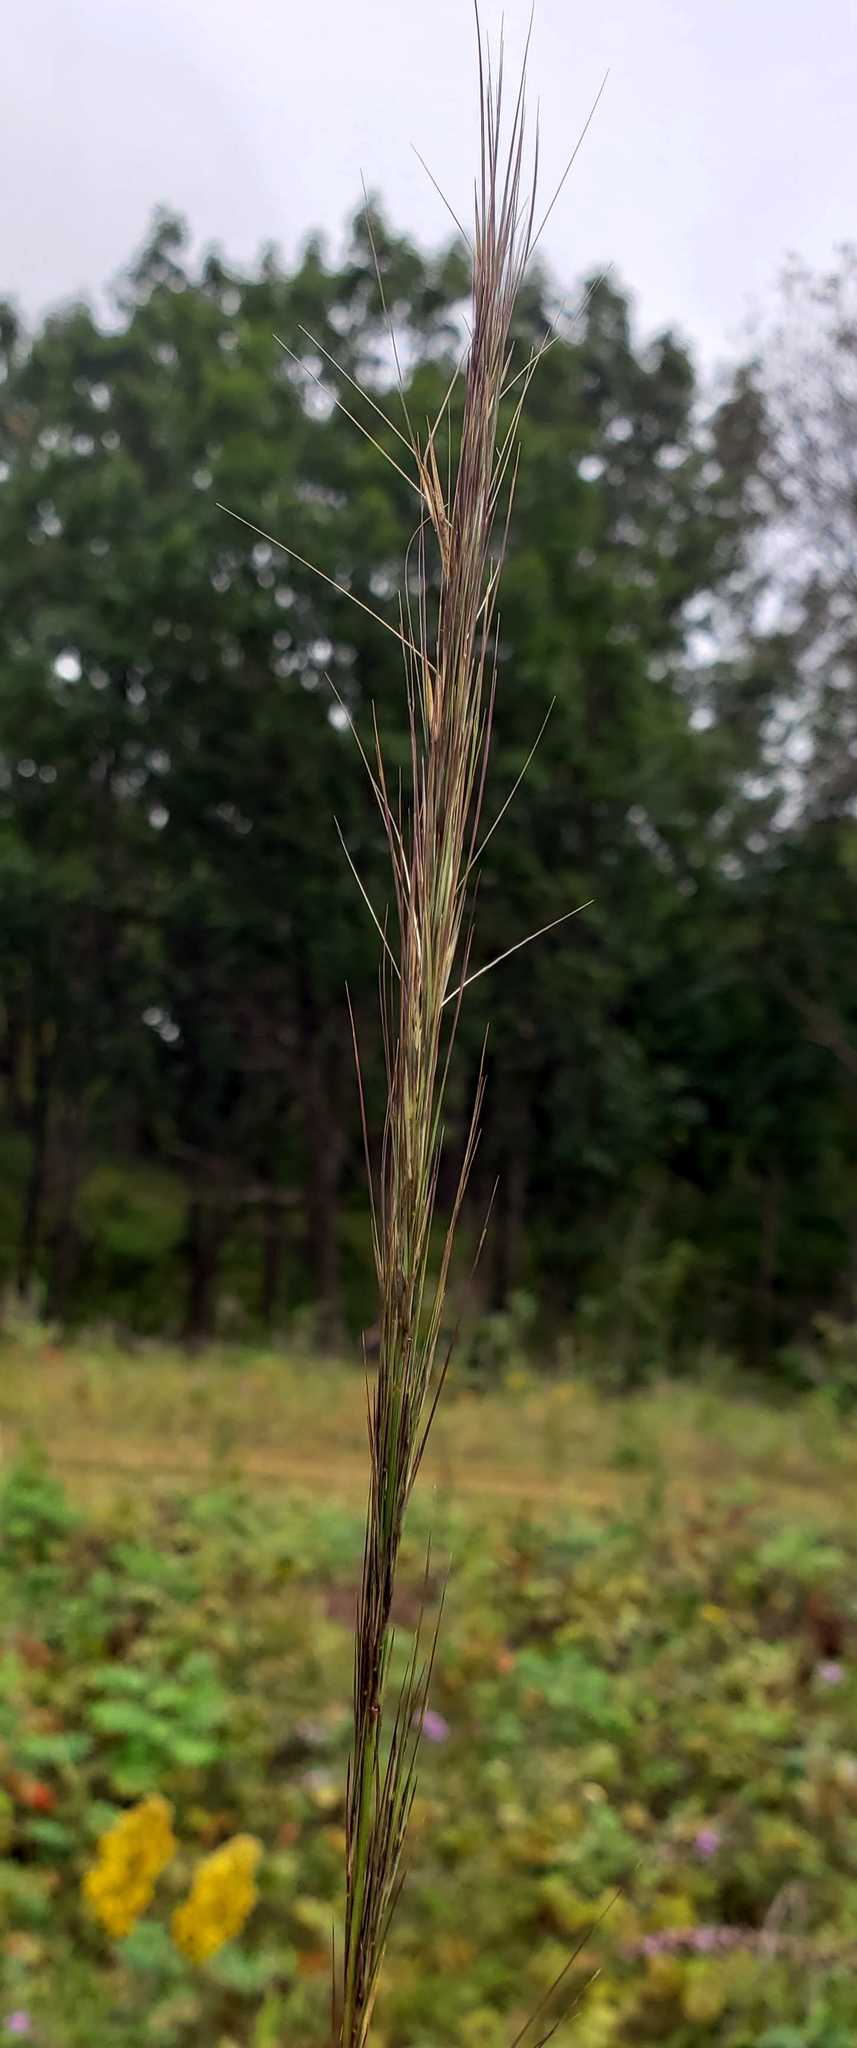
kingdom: Plantae
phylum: Tracheophyta
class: Liliopsida
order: Poales
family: Poaceae
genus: Aristida
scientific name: Aristida purpurascens
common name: Arrow-feather
